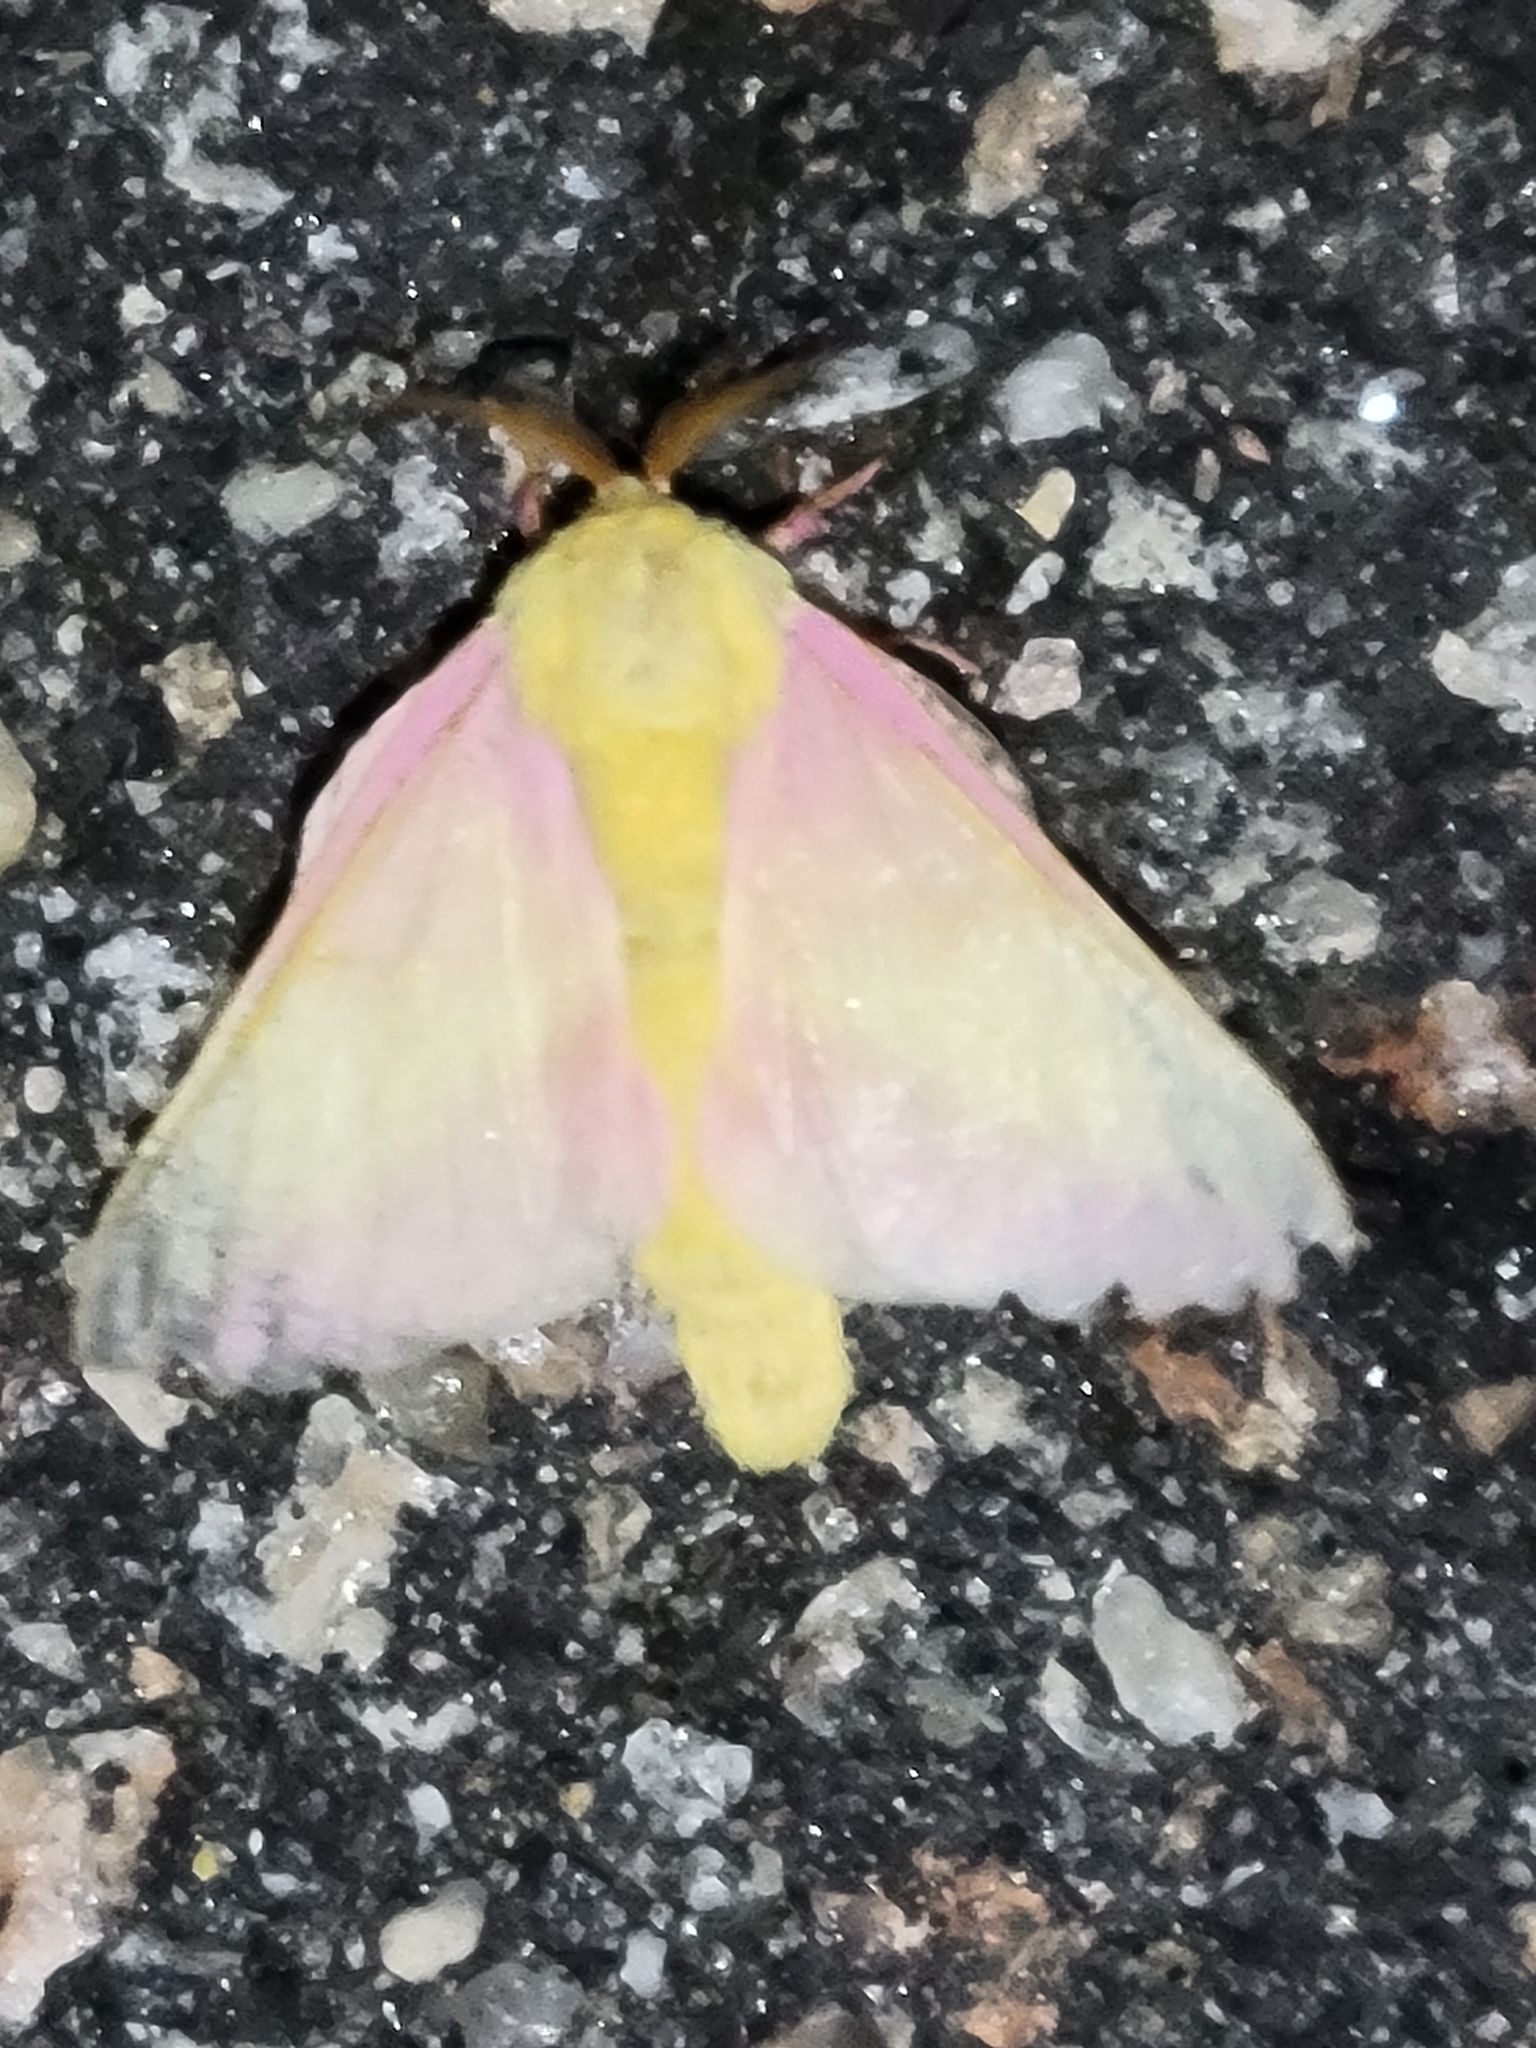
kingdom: Animalia
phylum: Arthropoda
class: Insecta
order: Lepidoptera
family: Saturniidae
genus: Dryocampa
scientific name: Dryocampa rubicunda
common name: Rosy maple moth
